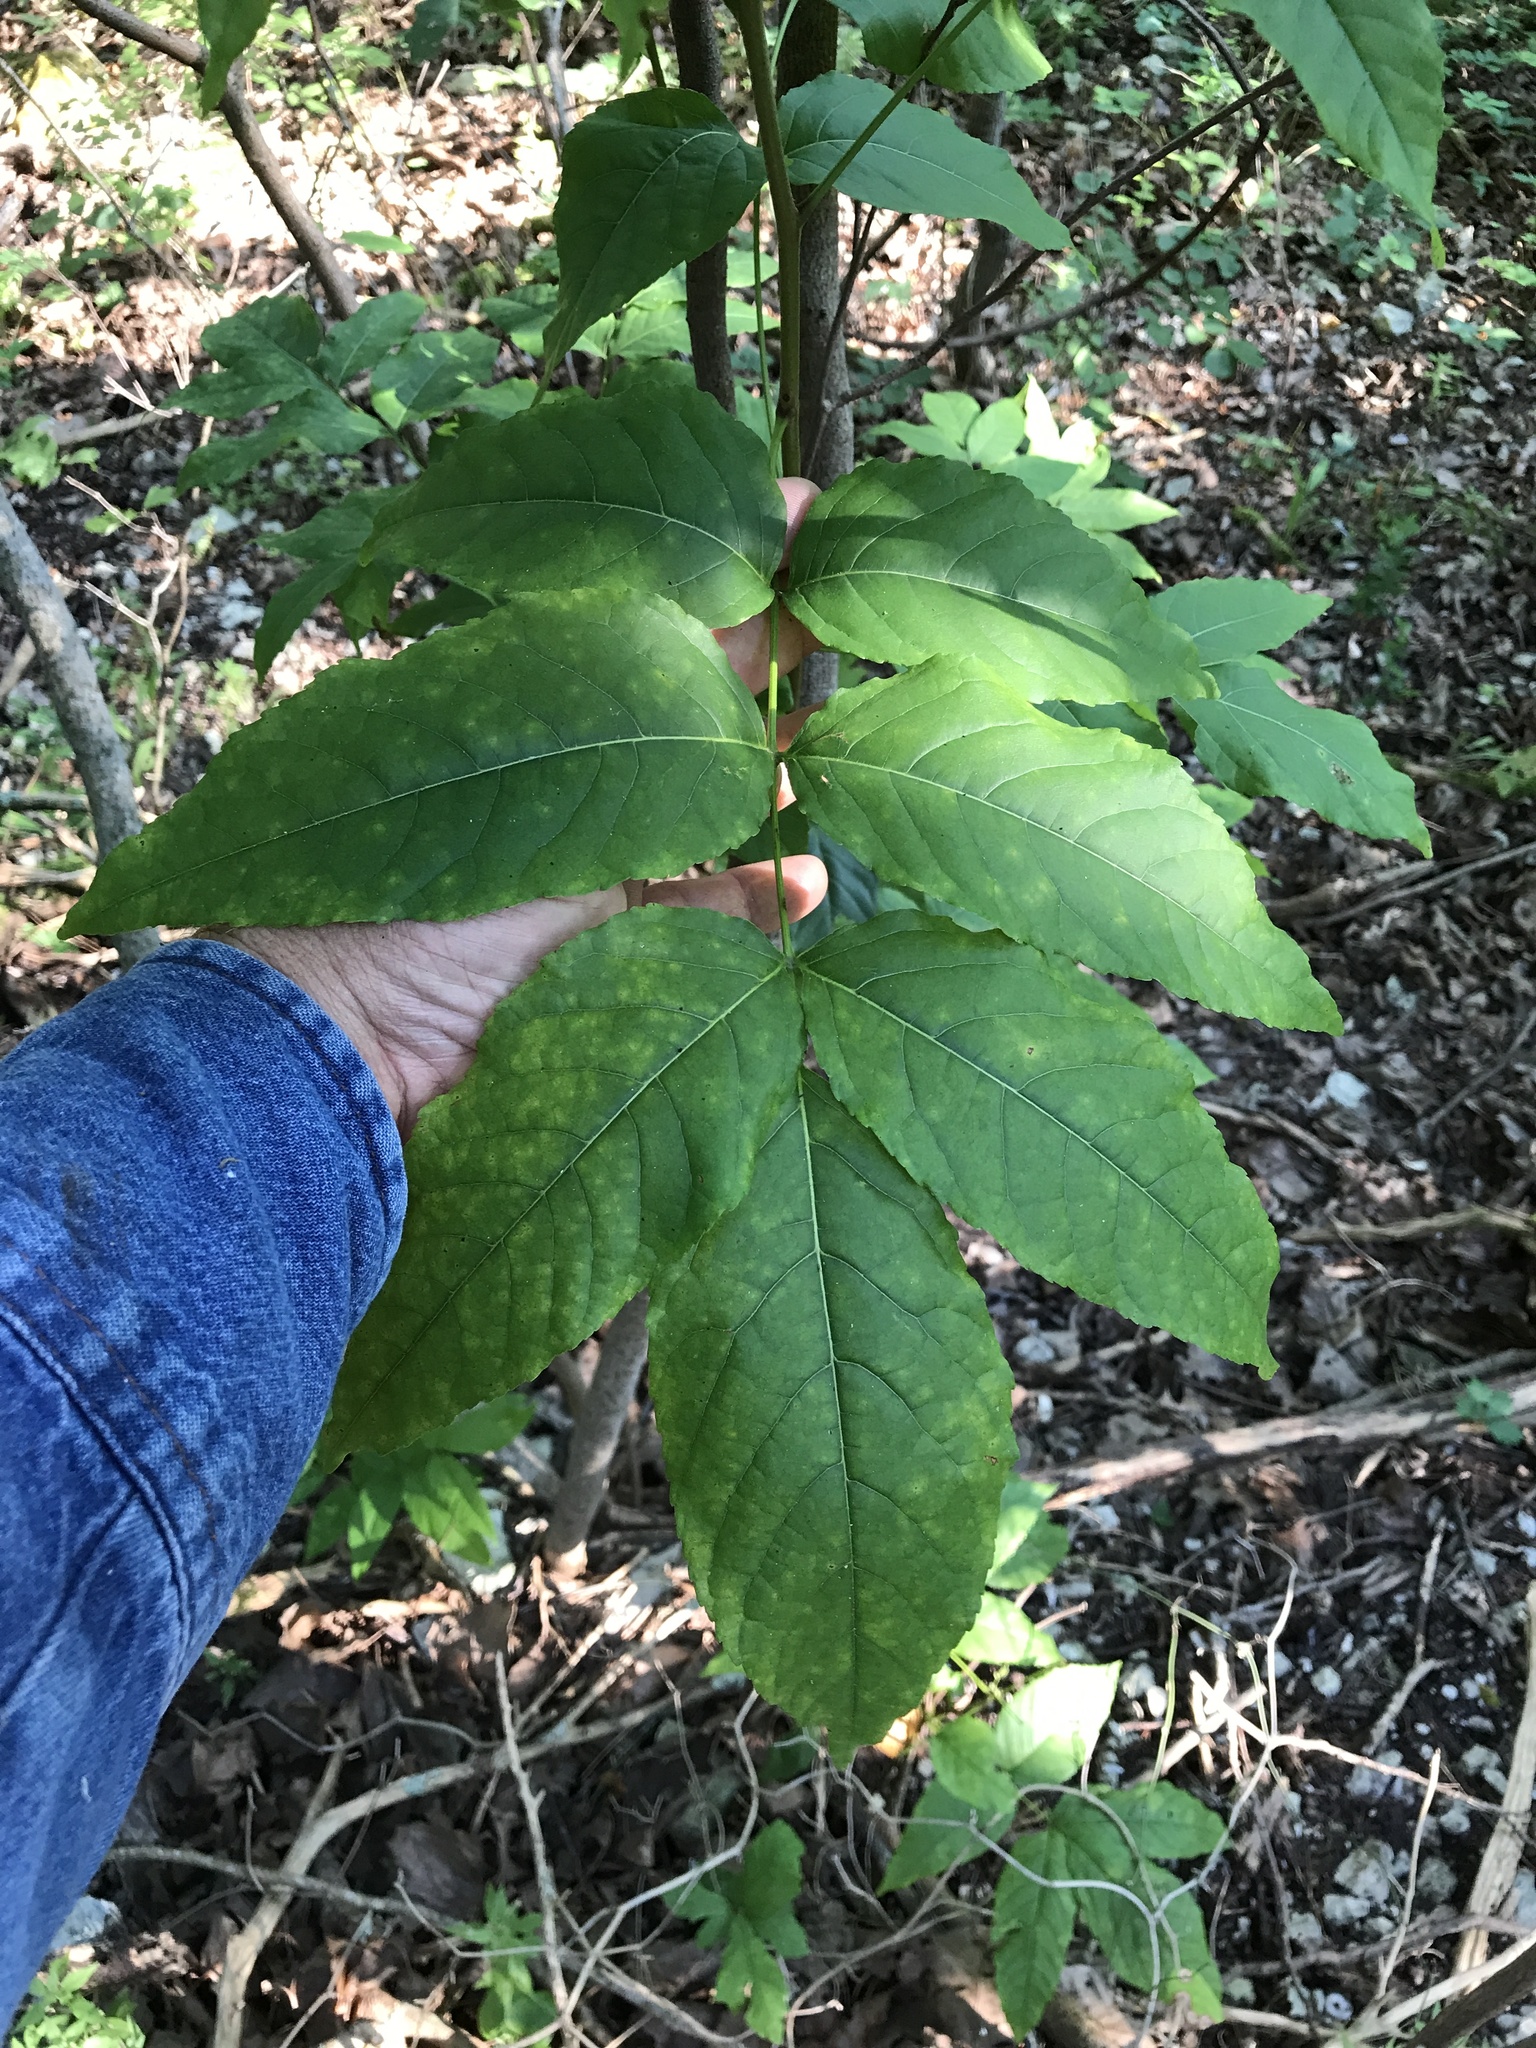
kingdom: Plantae
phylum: Tracheophyta
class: Magnoliopsida
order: Sapindales
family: Sapindaceae
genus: Ungnadia
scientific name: Ungnadia speciosa
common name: Texas-buckeye
